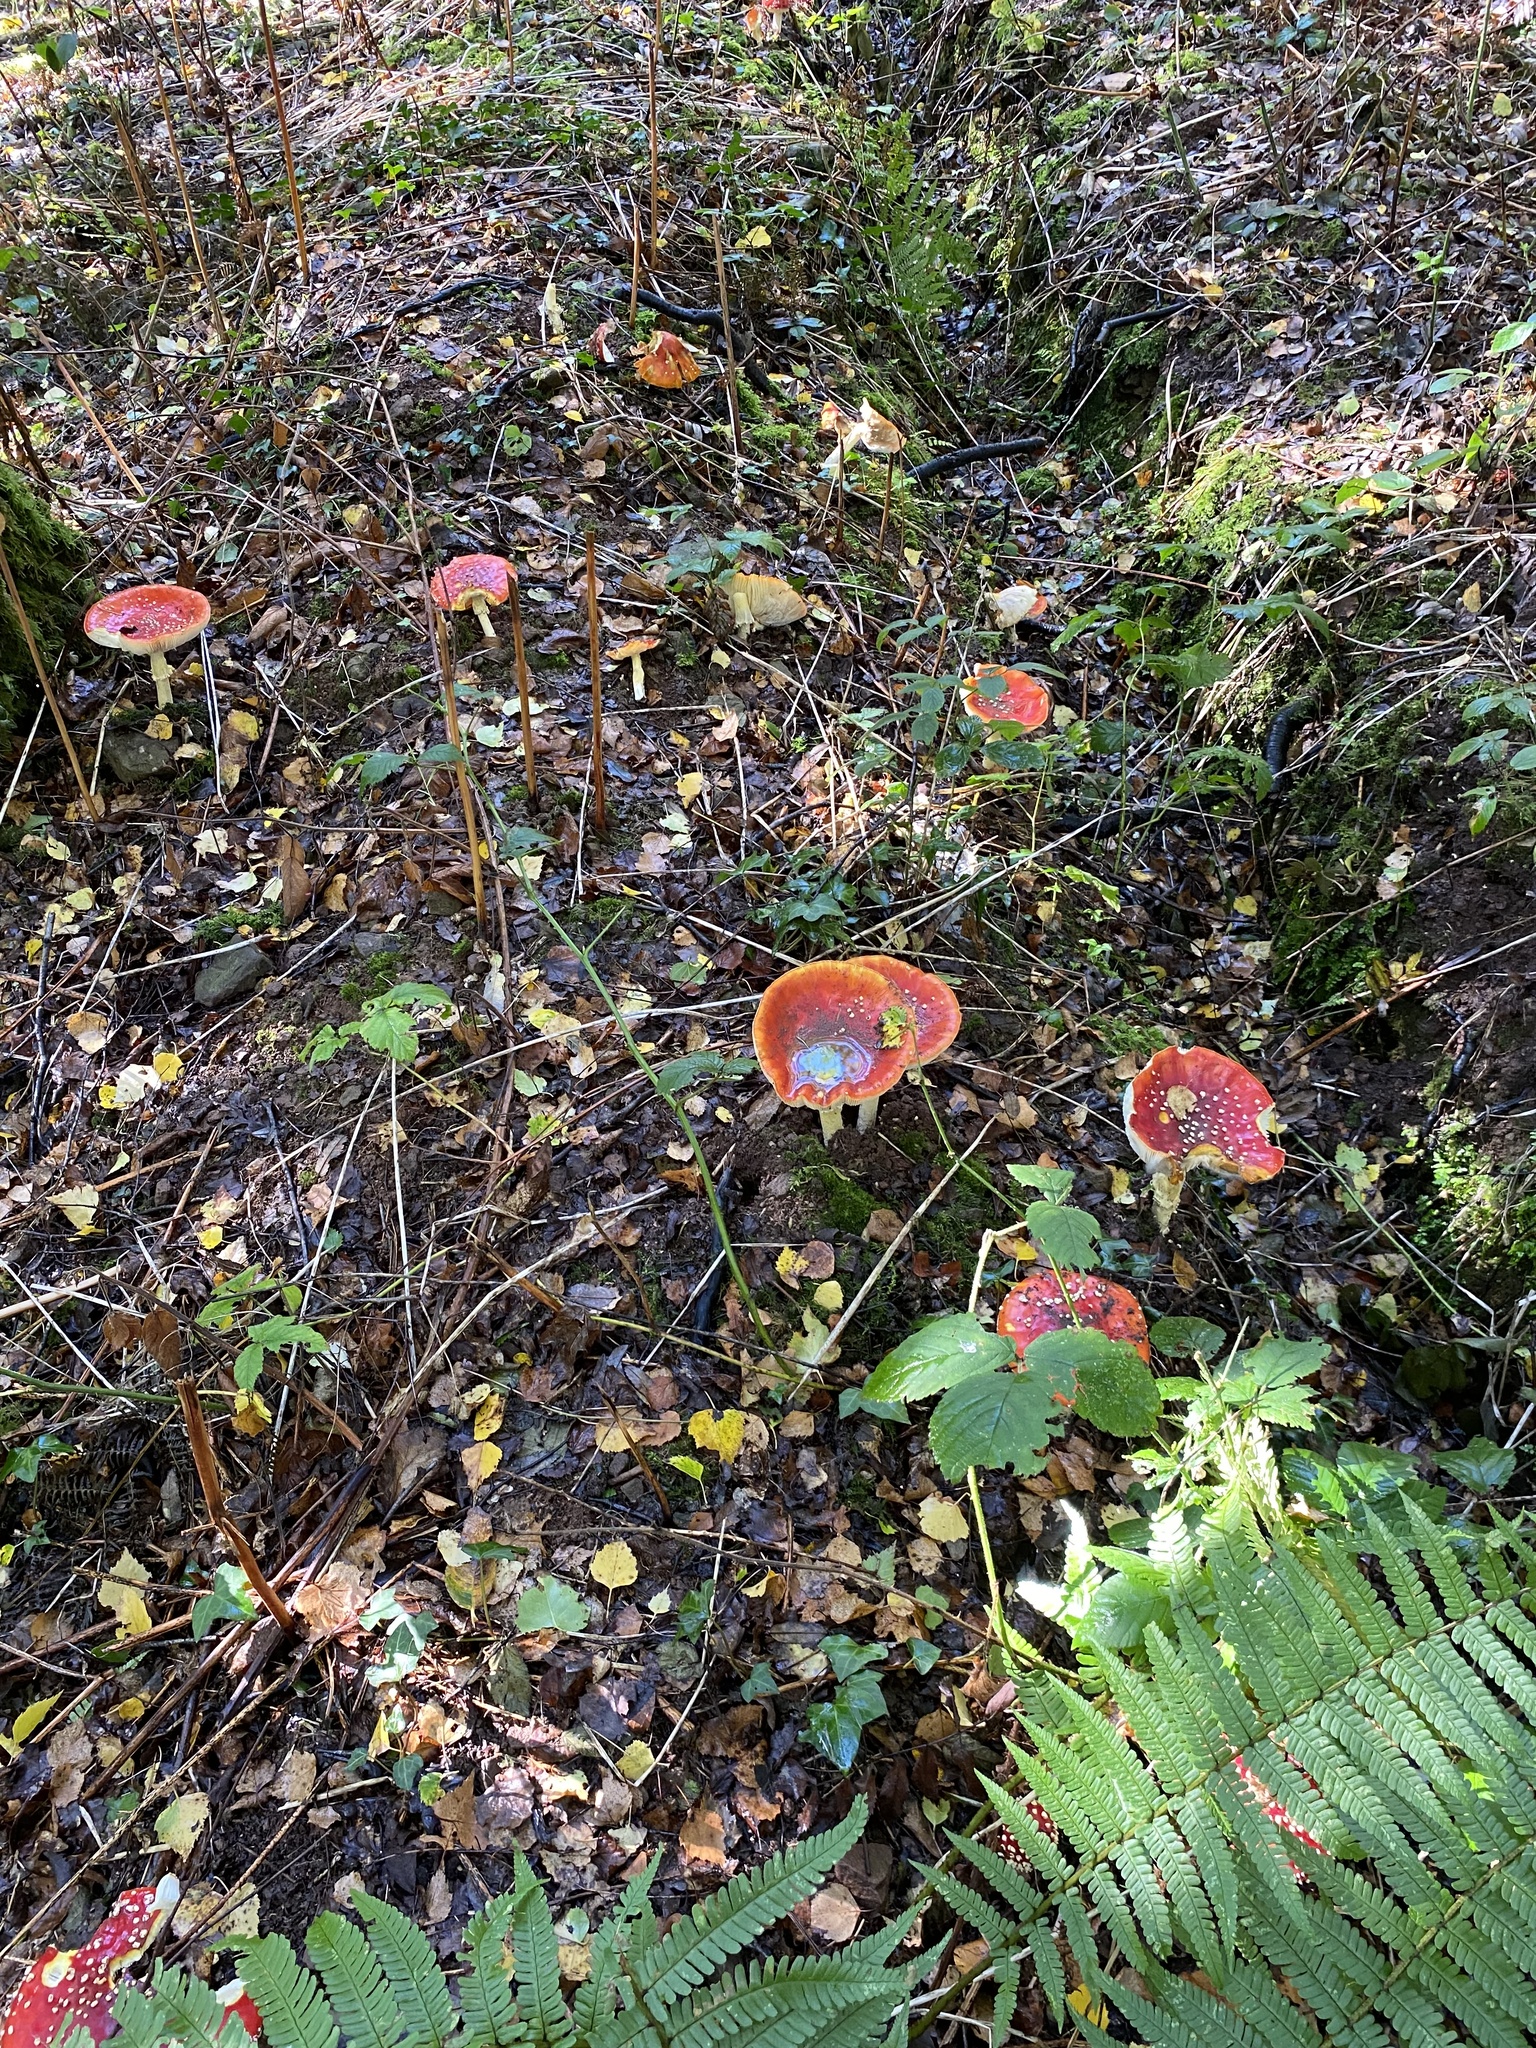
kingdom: Fungi
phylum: Basidiomycota
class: Agaricomycetes
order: Agaricales
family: Amanitaceae
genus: Amanita
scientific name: Amanita muscaria
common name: Fly agaric
